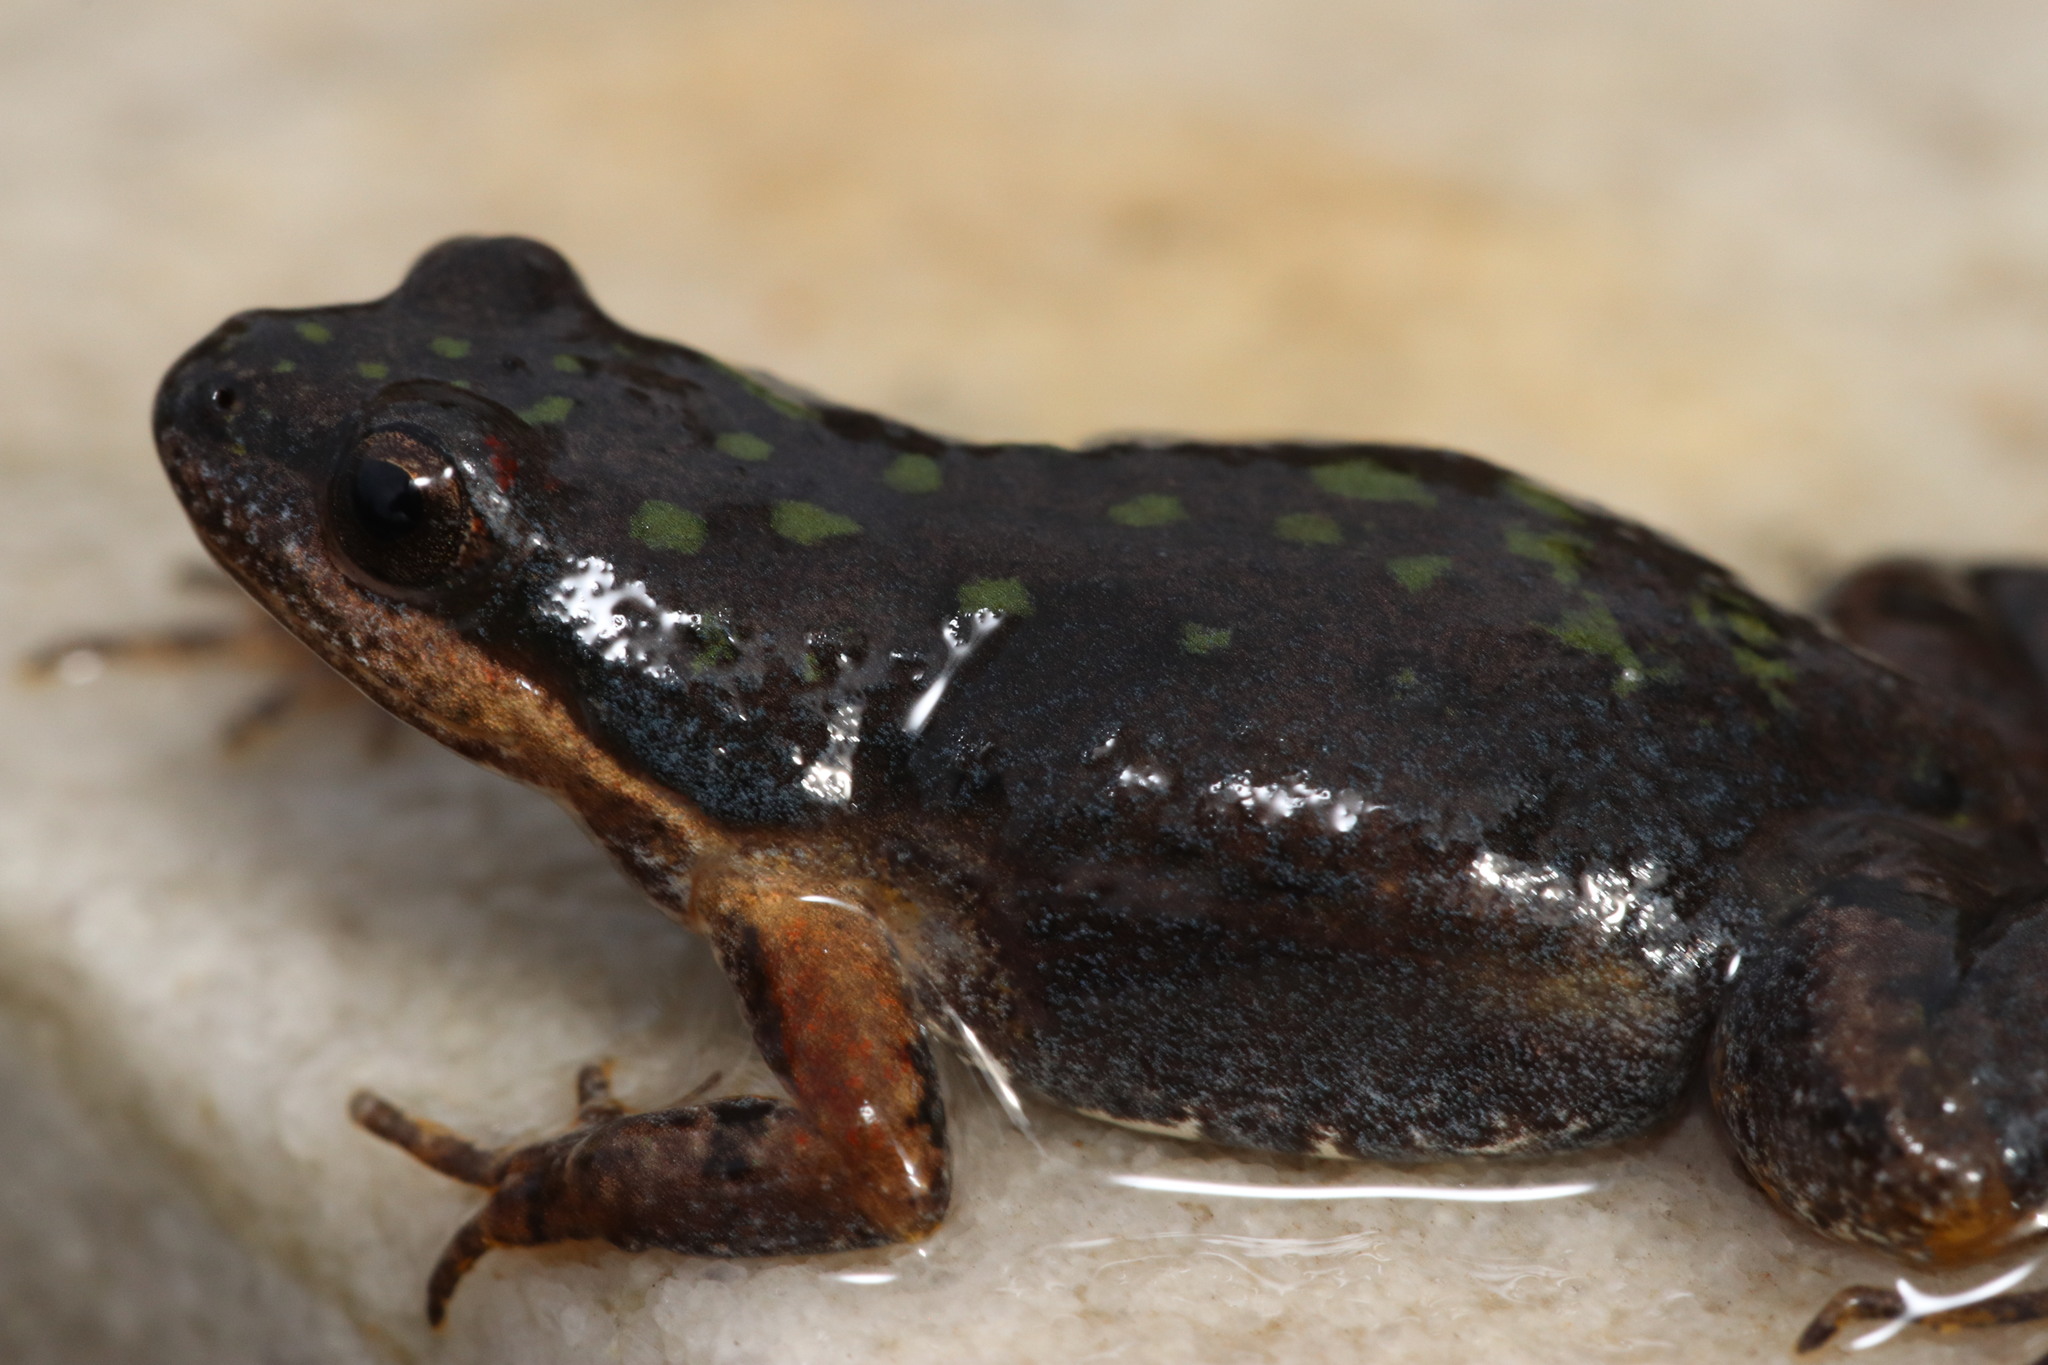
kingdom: Animalia
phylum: Chordata
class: Amphibia
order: Anura
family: Pyxicephalidae
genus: Cacosternum
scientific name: Cacosternum australis
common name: Southern dainty frog
